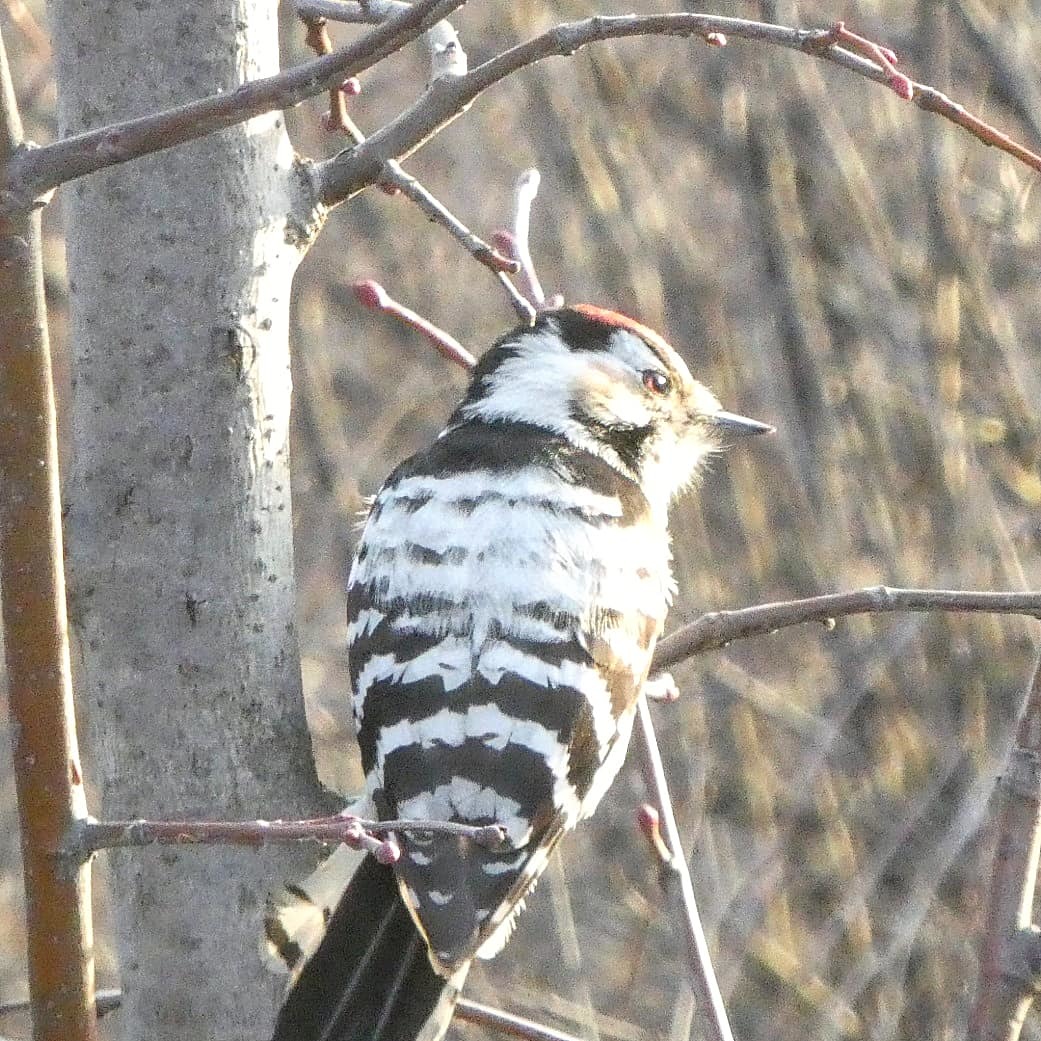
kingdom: Animalia
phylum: Chordata
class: Aves
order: Piciformes
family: Picidae
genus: Dryobates
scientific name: Dryobates minor
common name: Lesser spotted woodpecker
